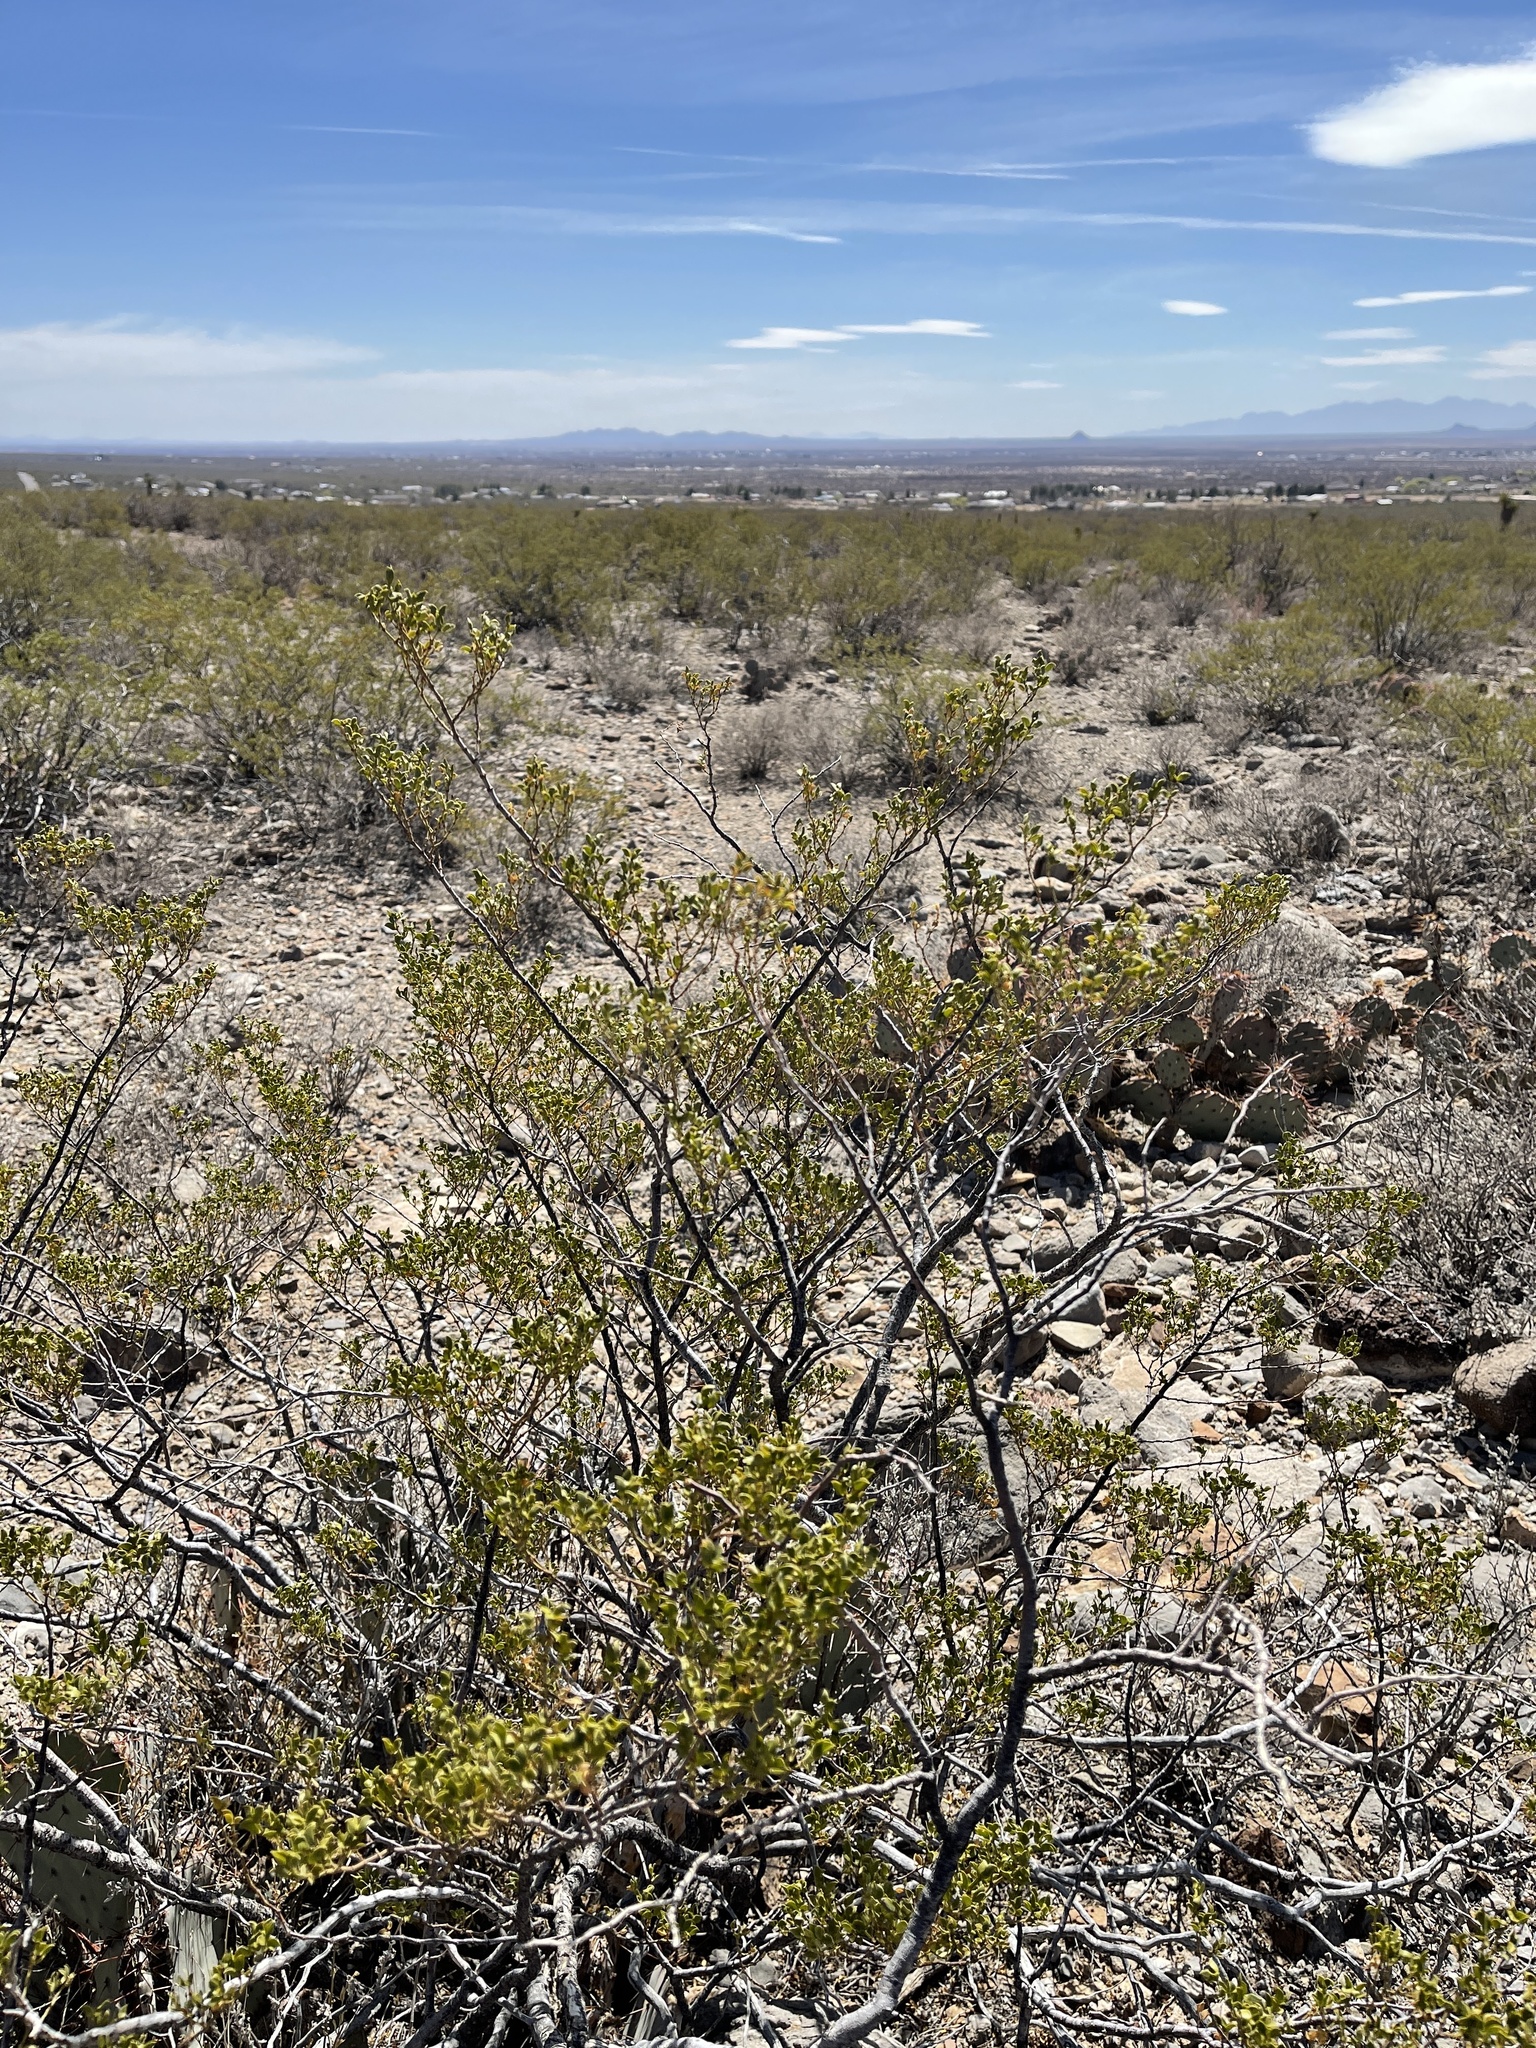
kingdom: Plantae
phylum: Tracheophyta
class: Magnoliopsida
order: Zygophyllales
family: Zygophyllaceae
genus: Larrea
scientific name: Larrea tridentata
